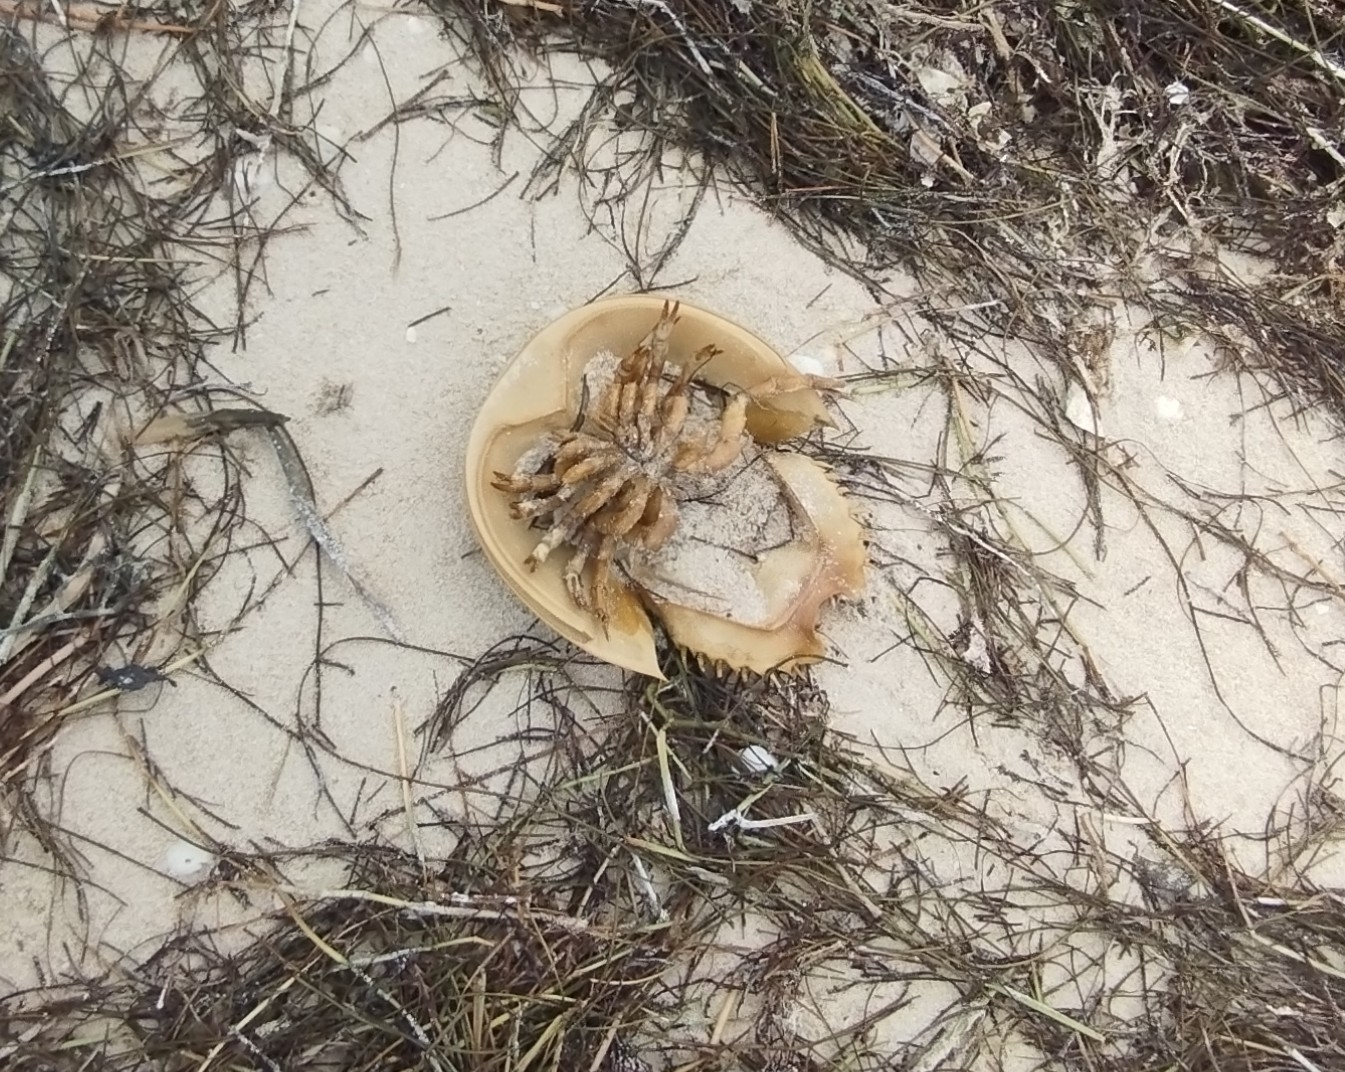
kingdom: Animalia
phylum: Arthropoda
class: Merostomata
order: Xiphosurida
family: Limulidae
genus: Limulus
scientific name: Limulus polyphemus
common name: Horseshoe crab
